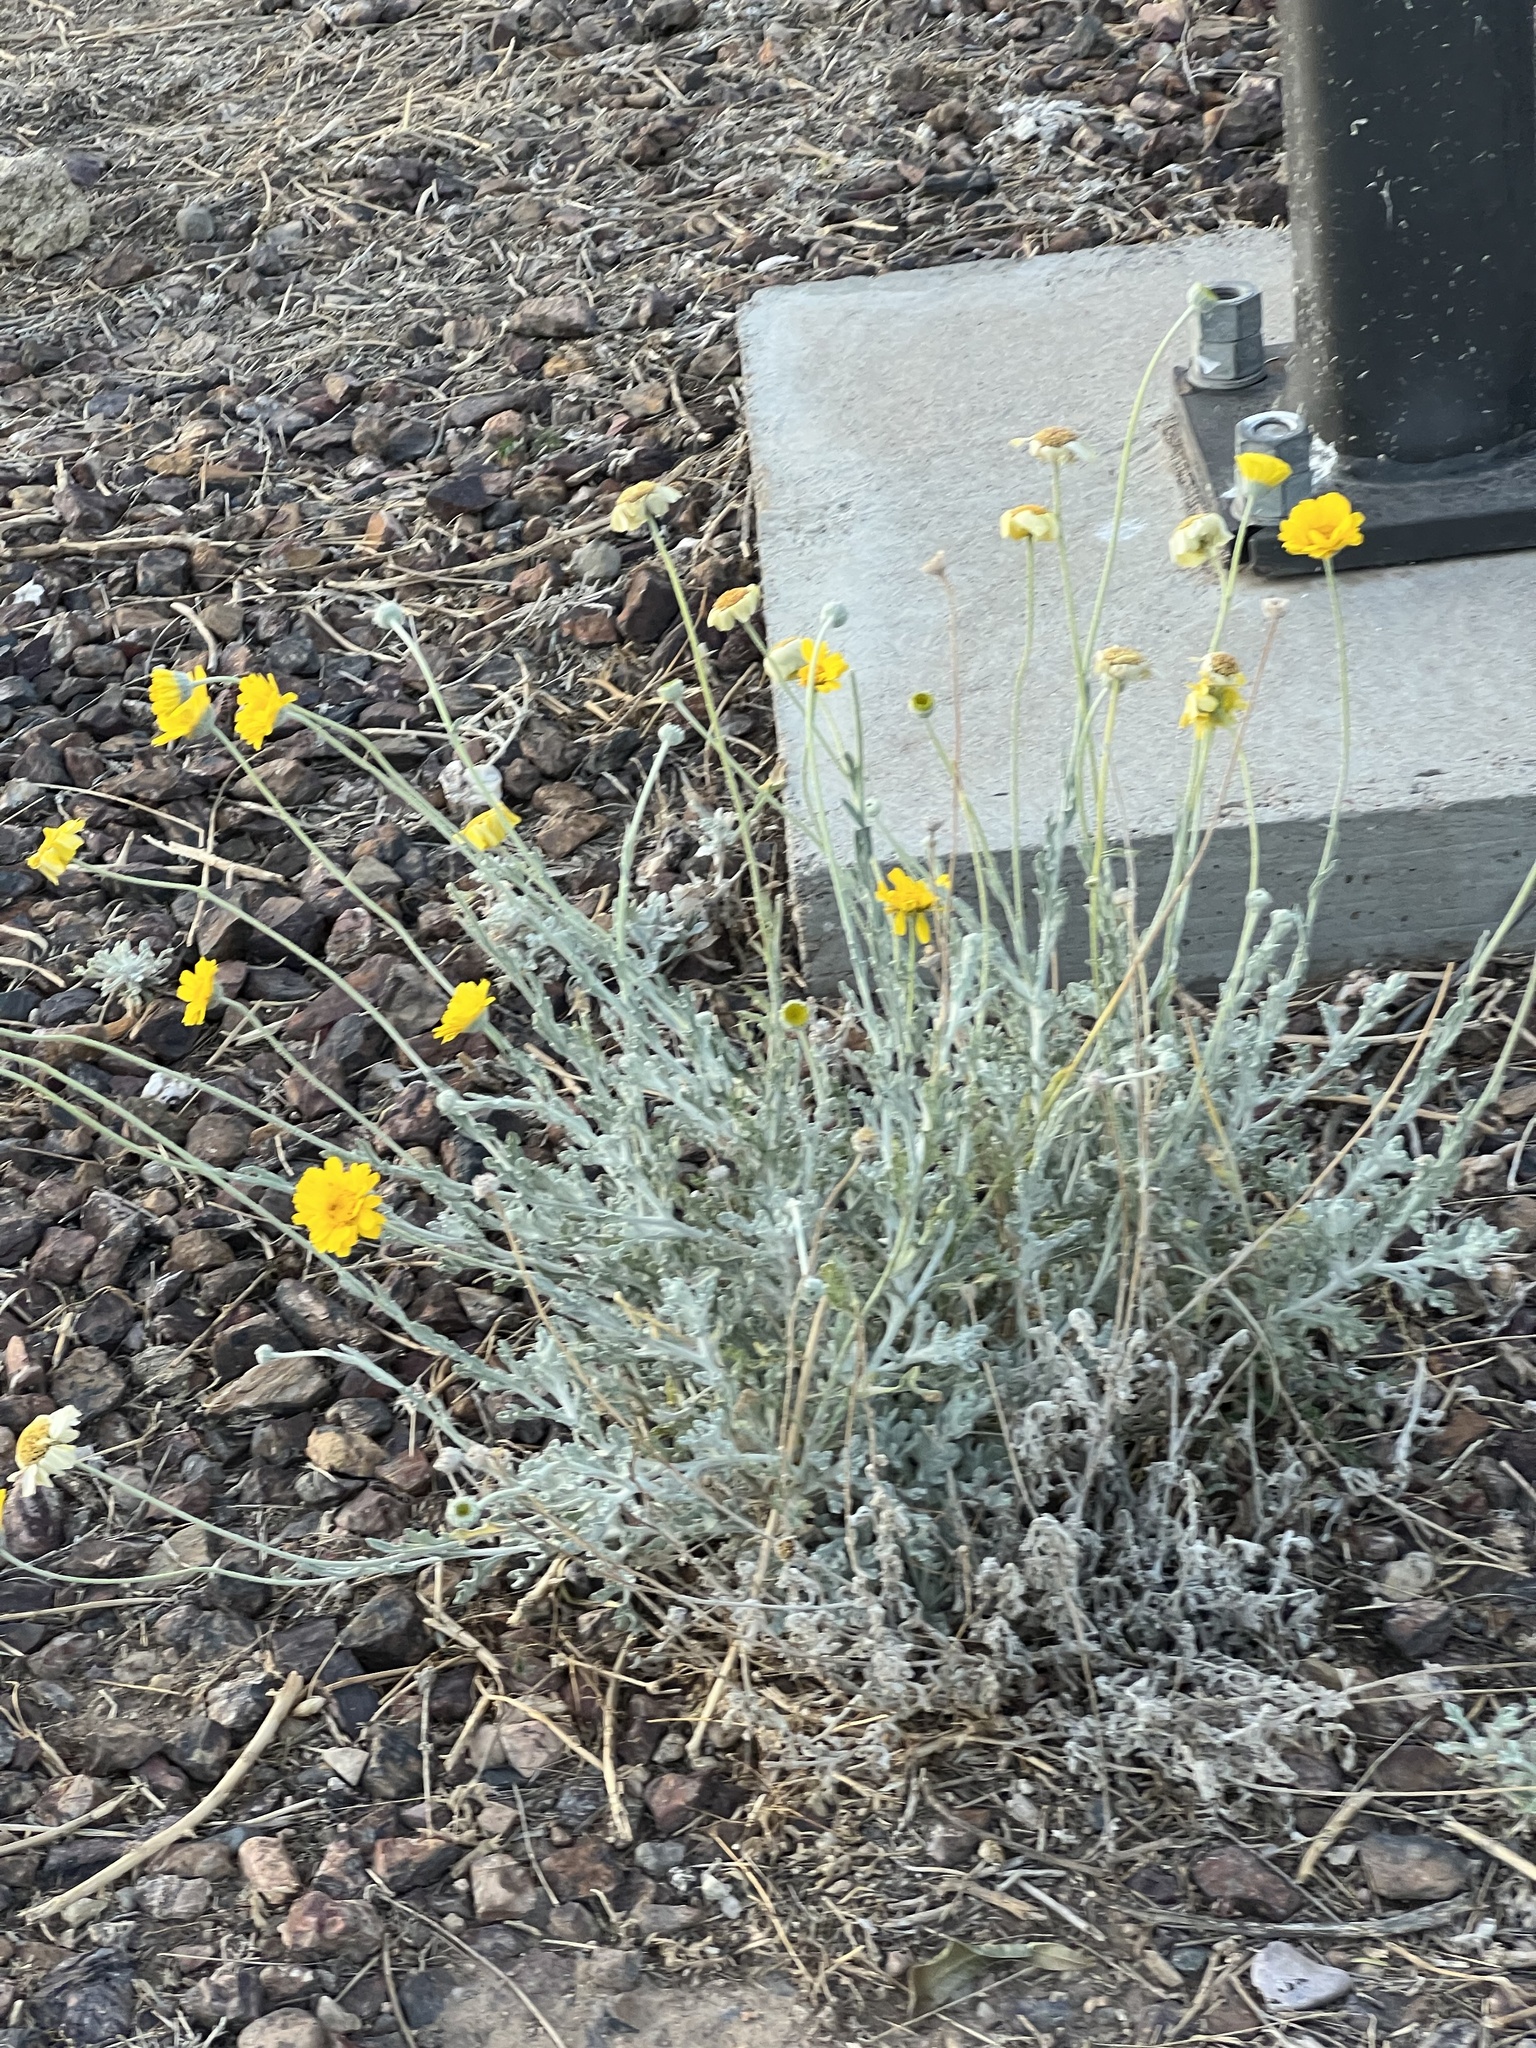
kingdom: Plantae
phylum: Tracheophyta
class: Magnoliopsida
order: Asterales
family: Asteraceae
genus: Baileya
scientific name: Baileya multiradiata
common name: Desert-marigold
